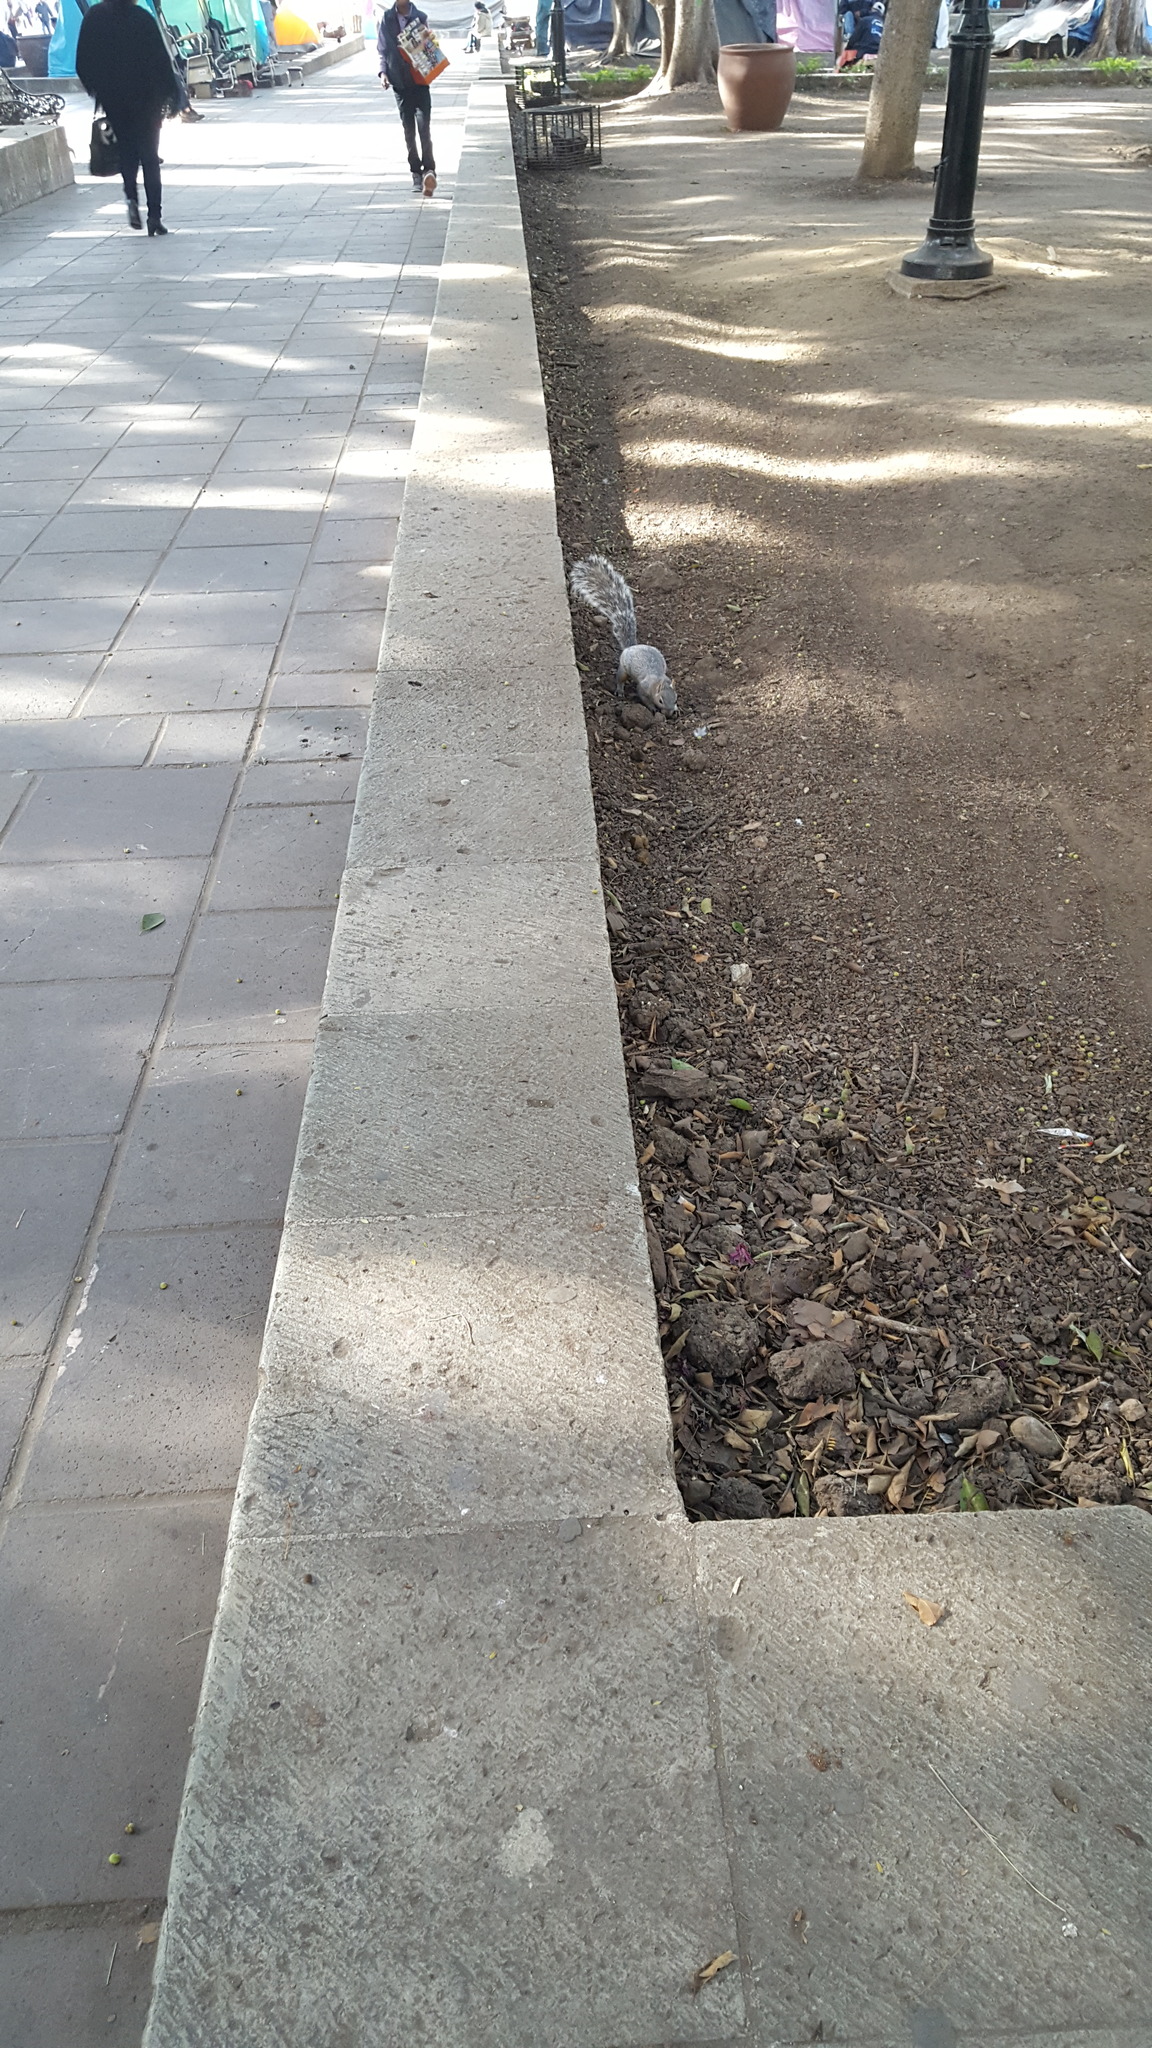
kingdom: Animalia
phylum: Chordata
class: Mammalia
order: Rodentia
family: Sciuridae
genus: Sciurus
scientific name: Sciurus aureogaster
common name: Red-bellied squirrel
